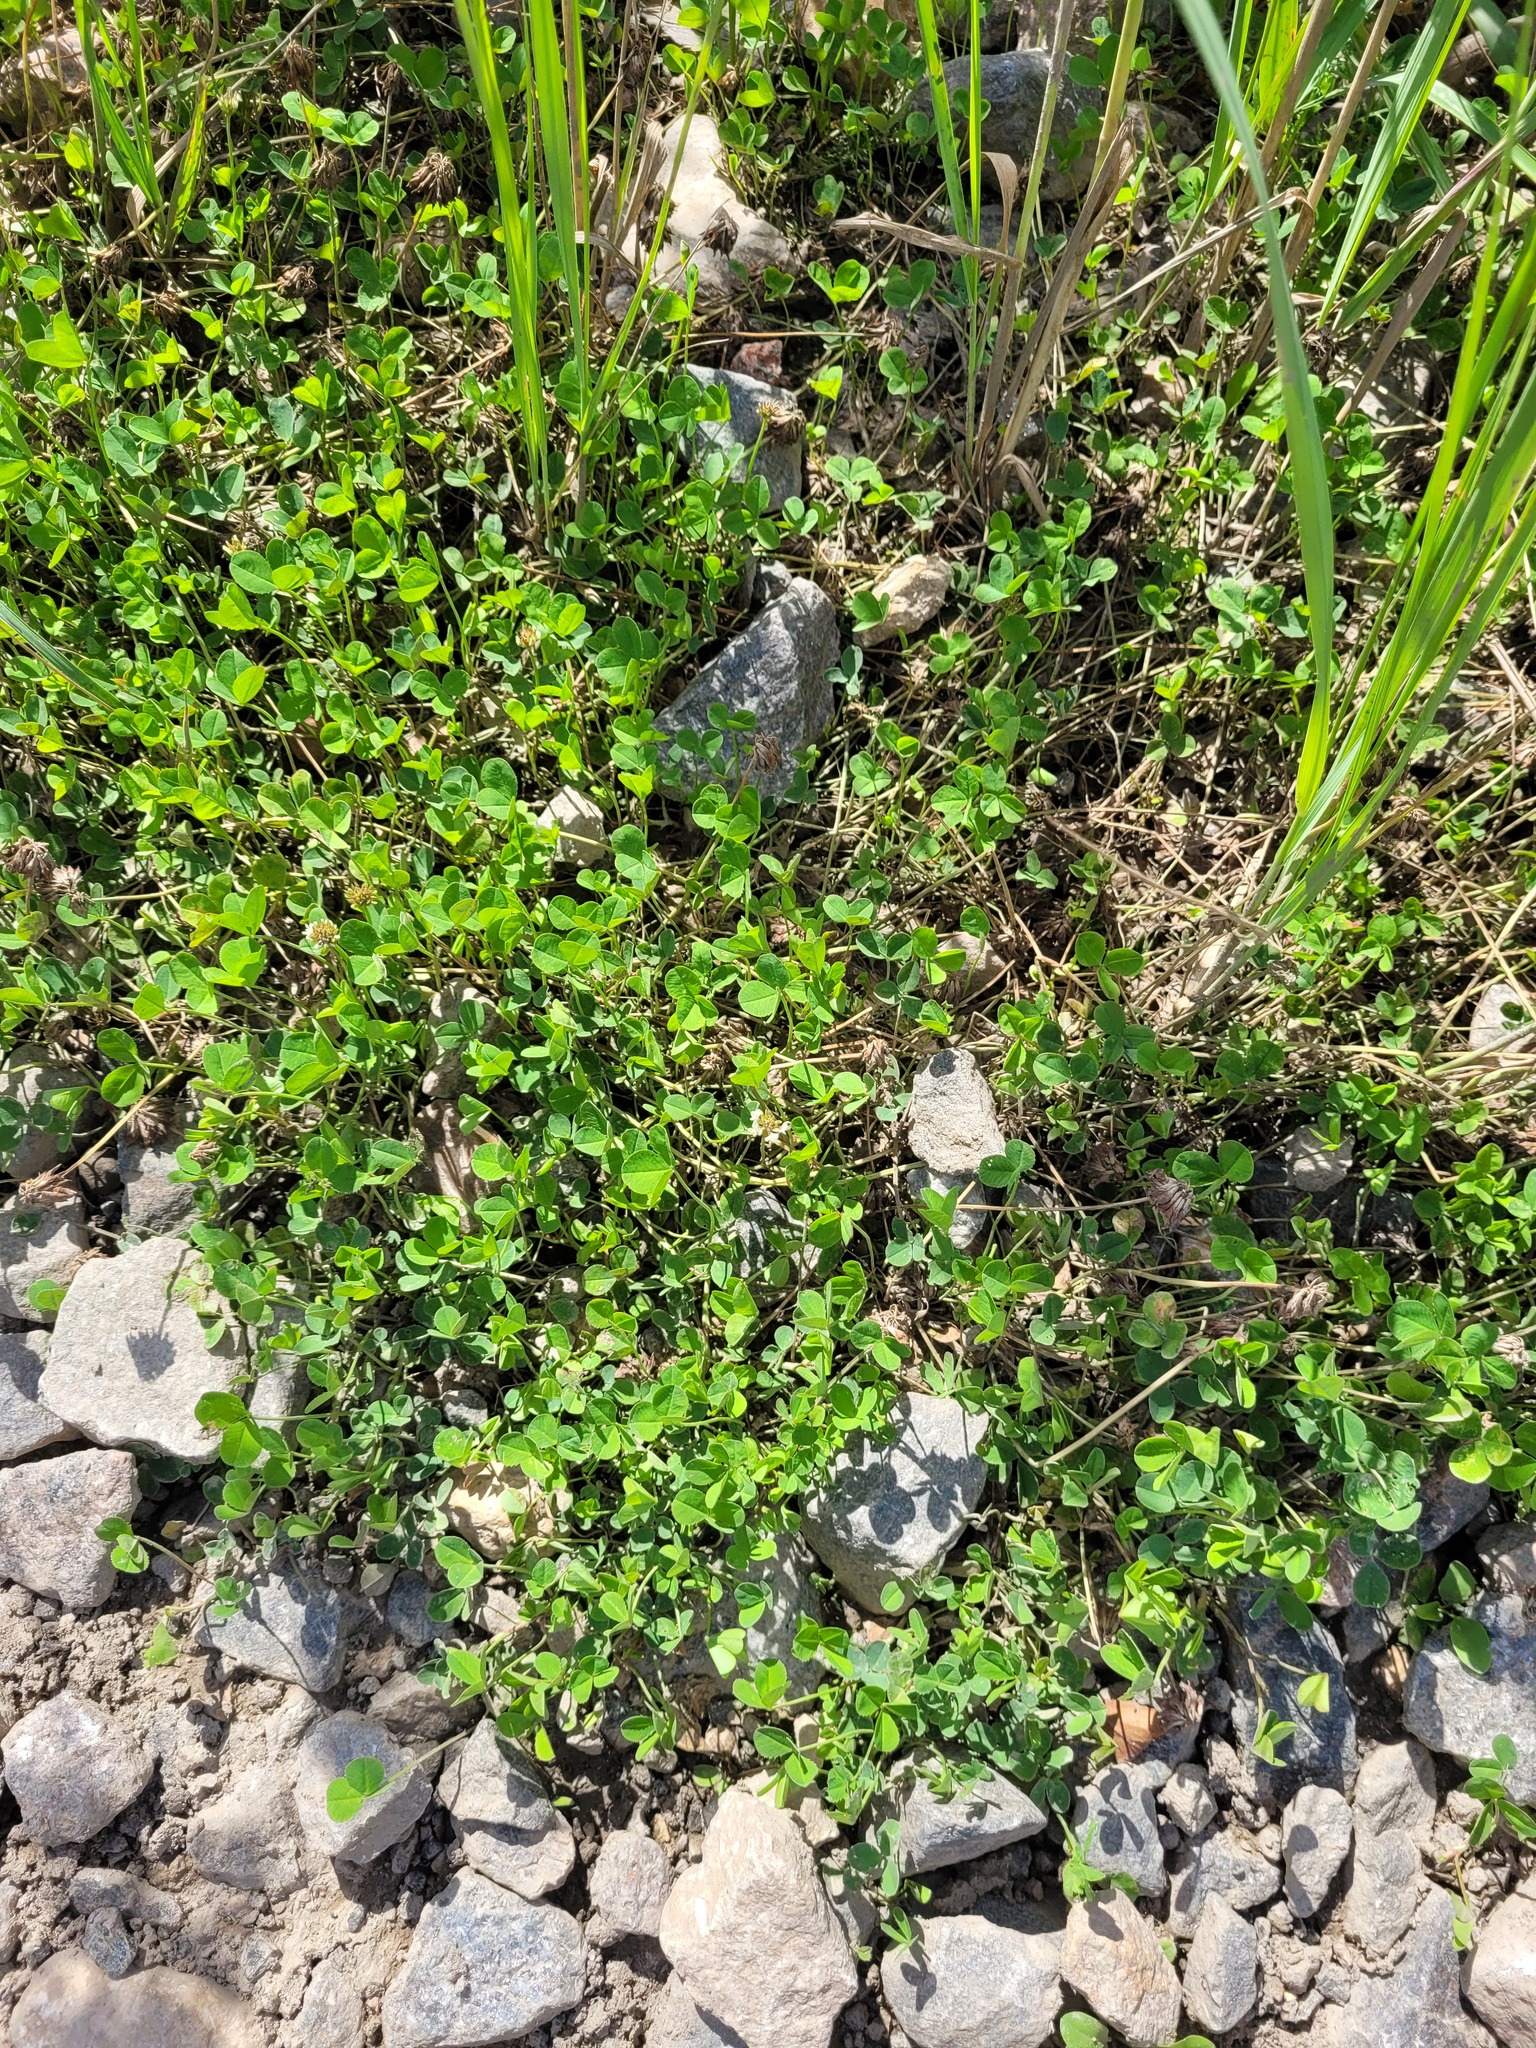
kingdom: Plantae
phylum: Tracheophyta
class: Magnoliopsida
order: Fabales
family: Fabaceae
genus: Trifolium
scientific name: Trifolium repens
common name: White clover
